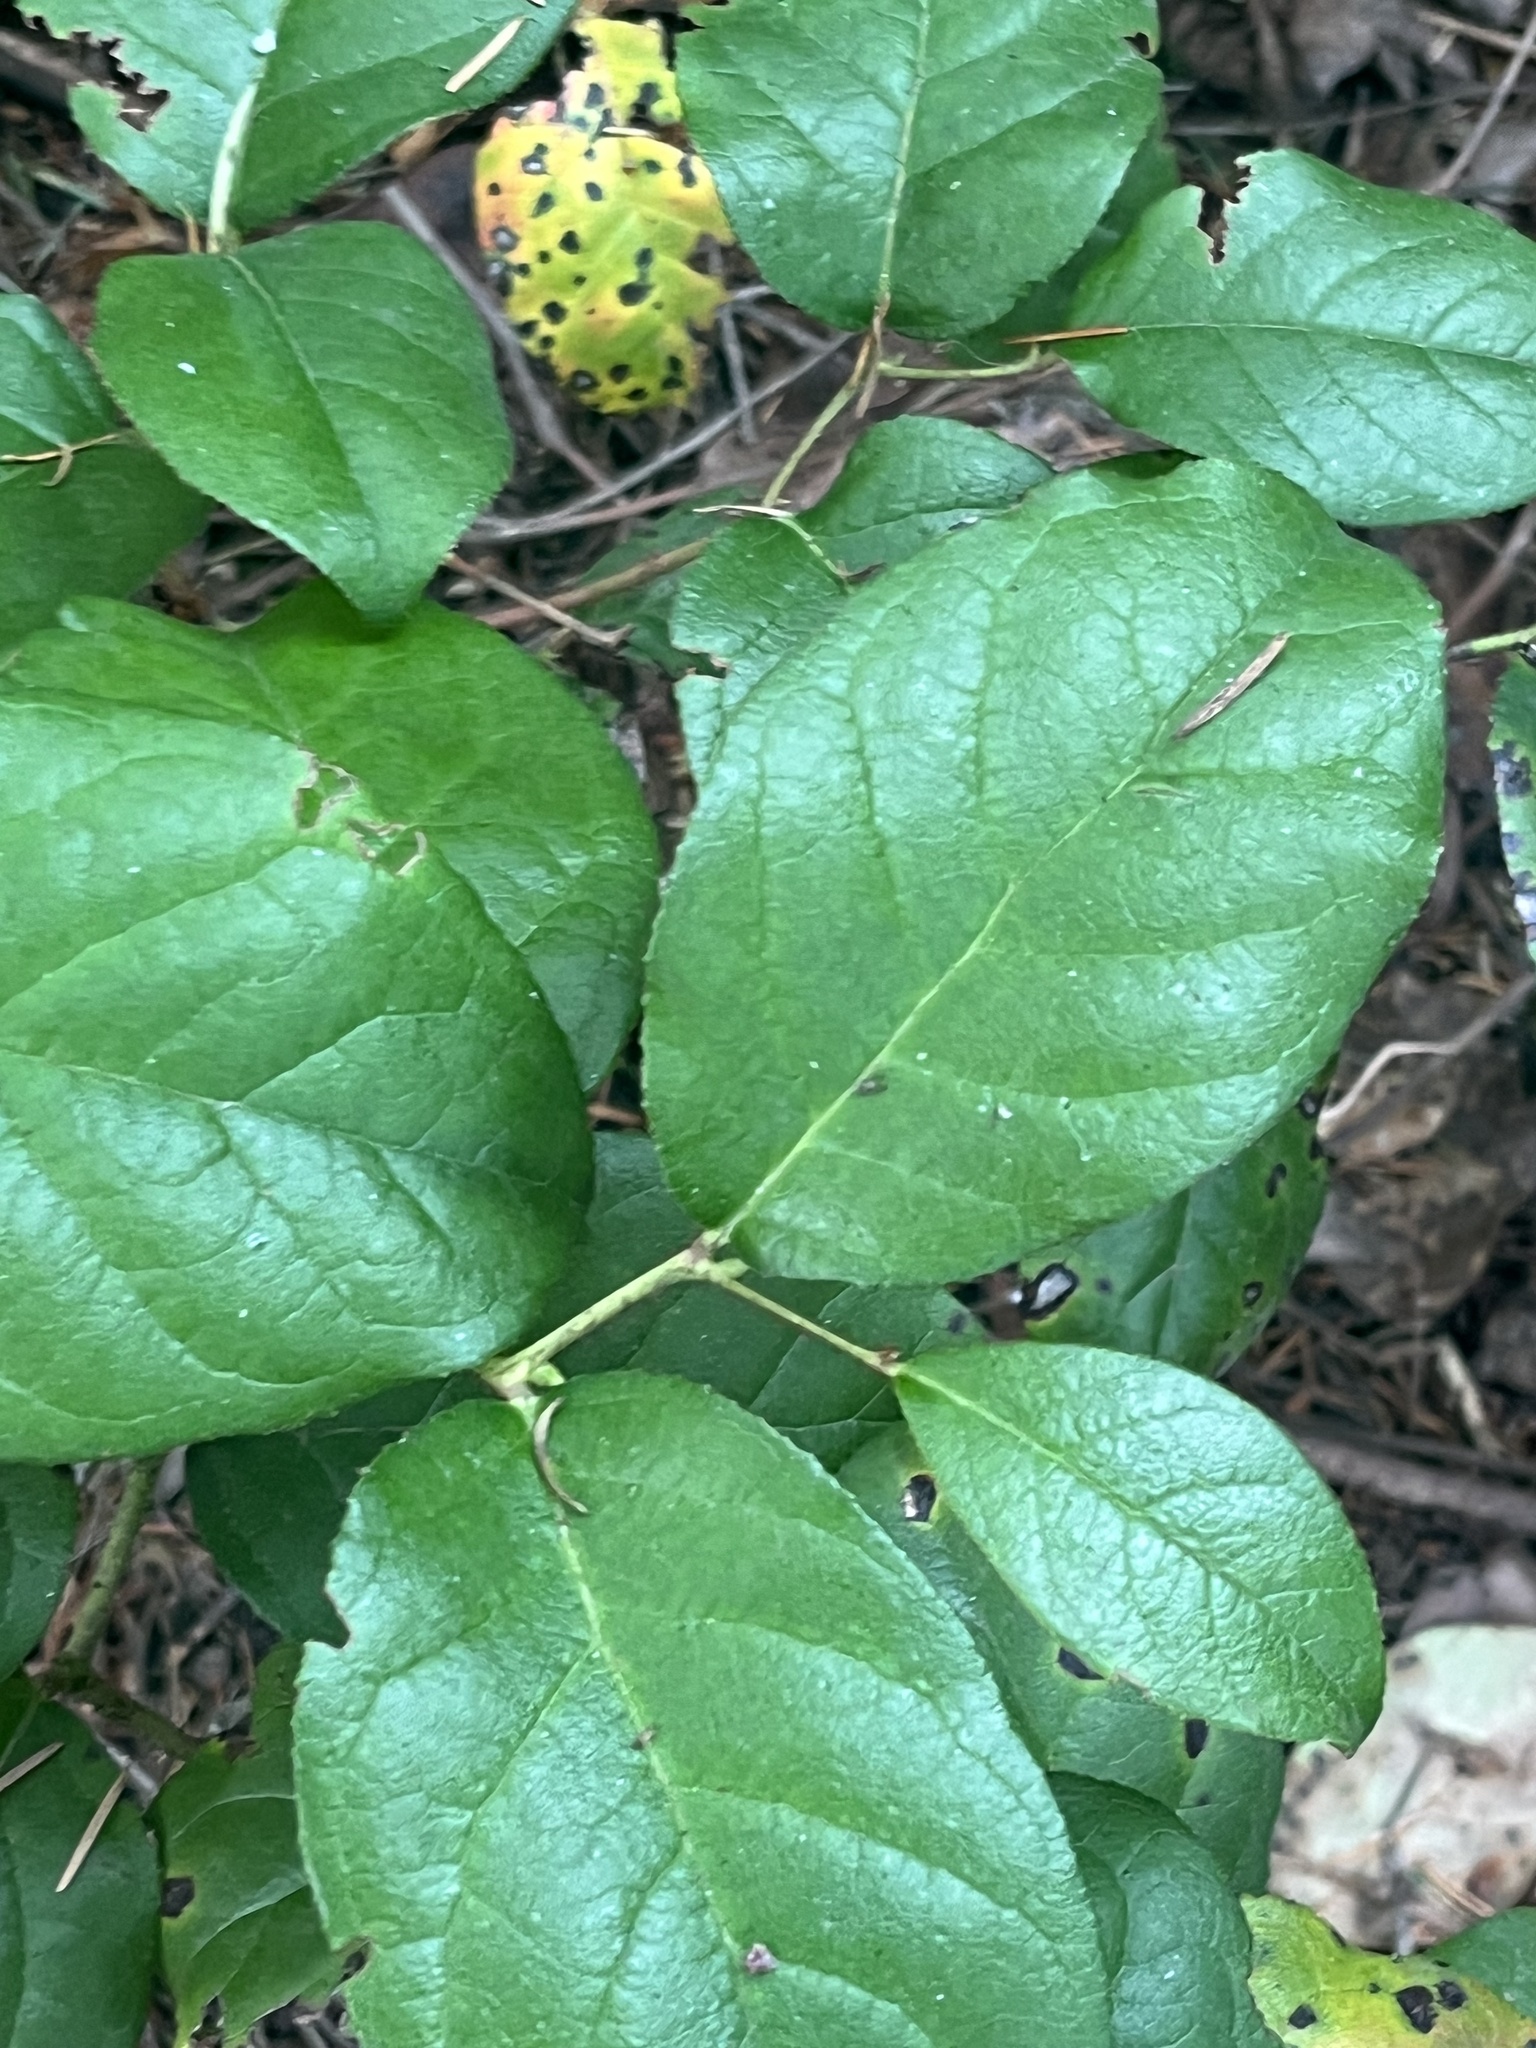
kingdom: Plantae
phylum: Tracheophyta
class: Magnoliopsida
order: Ericales
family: Ericaceae
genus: Gaultheria
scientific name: Gaultheria shallon
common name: Shallon
